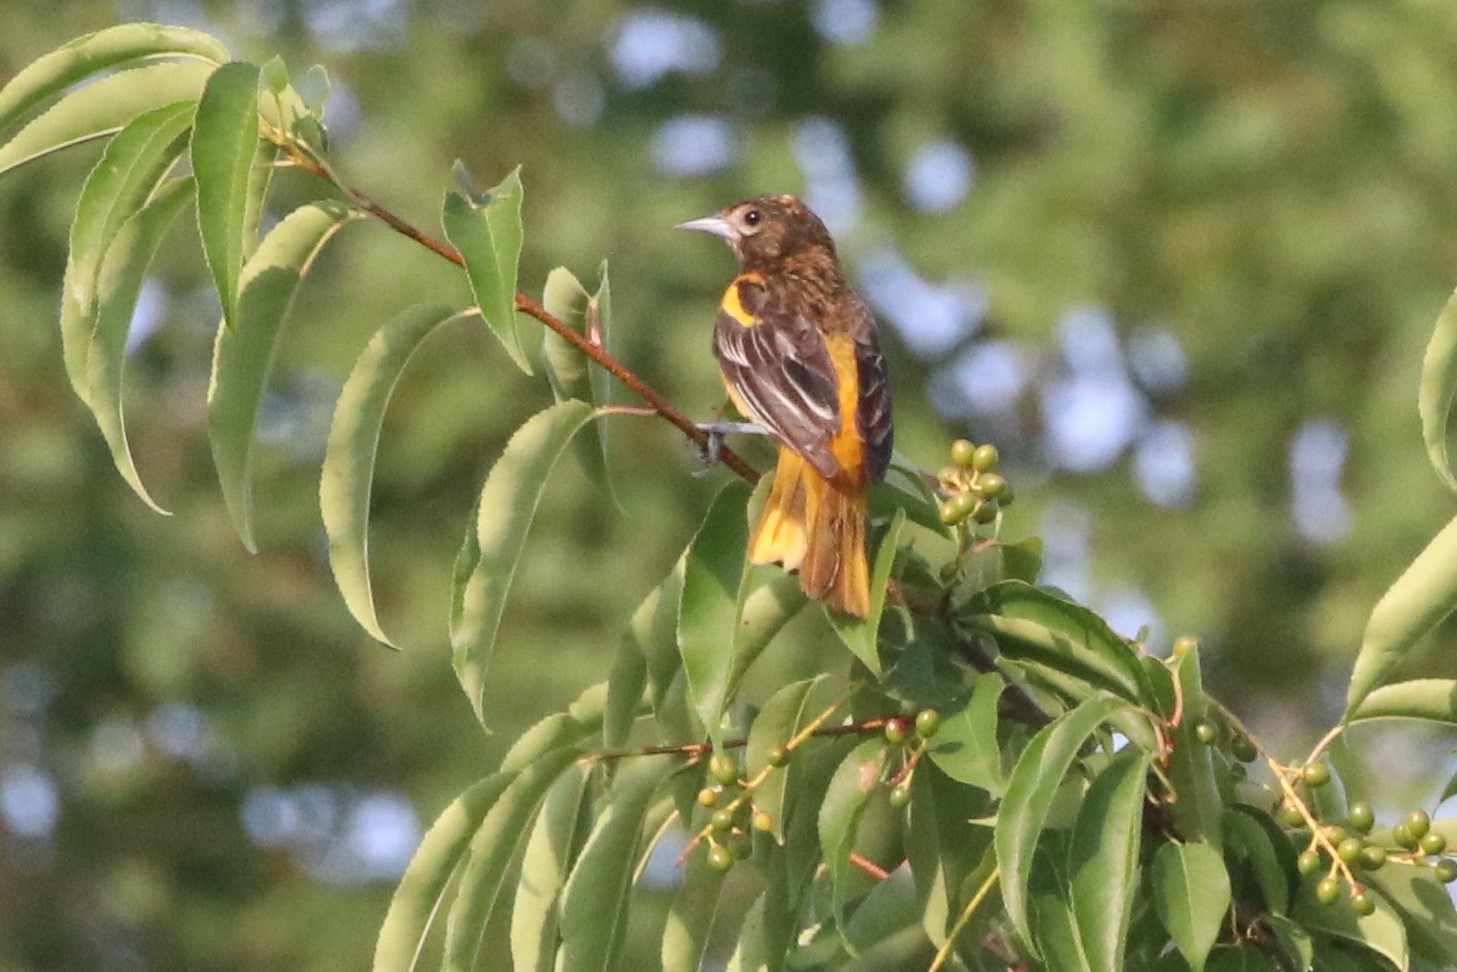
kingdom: Animalia
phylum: Chordata
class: Aves
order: Passeriformes
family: Icteridae
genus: Icterus
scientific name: Icterus galbula
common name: Baltimore oriole
